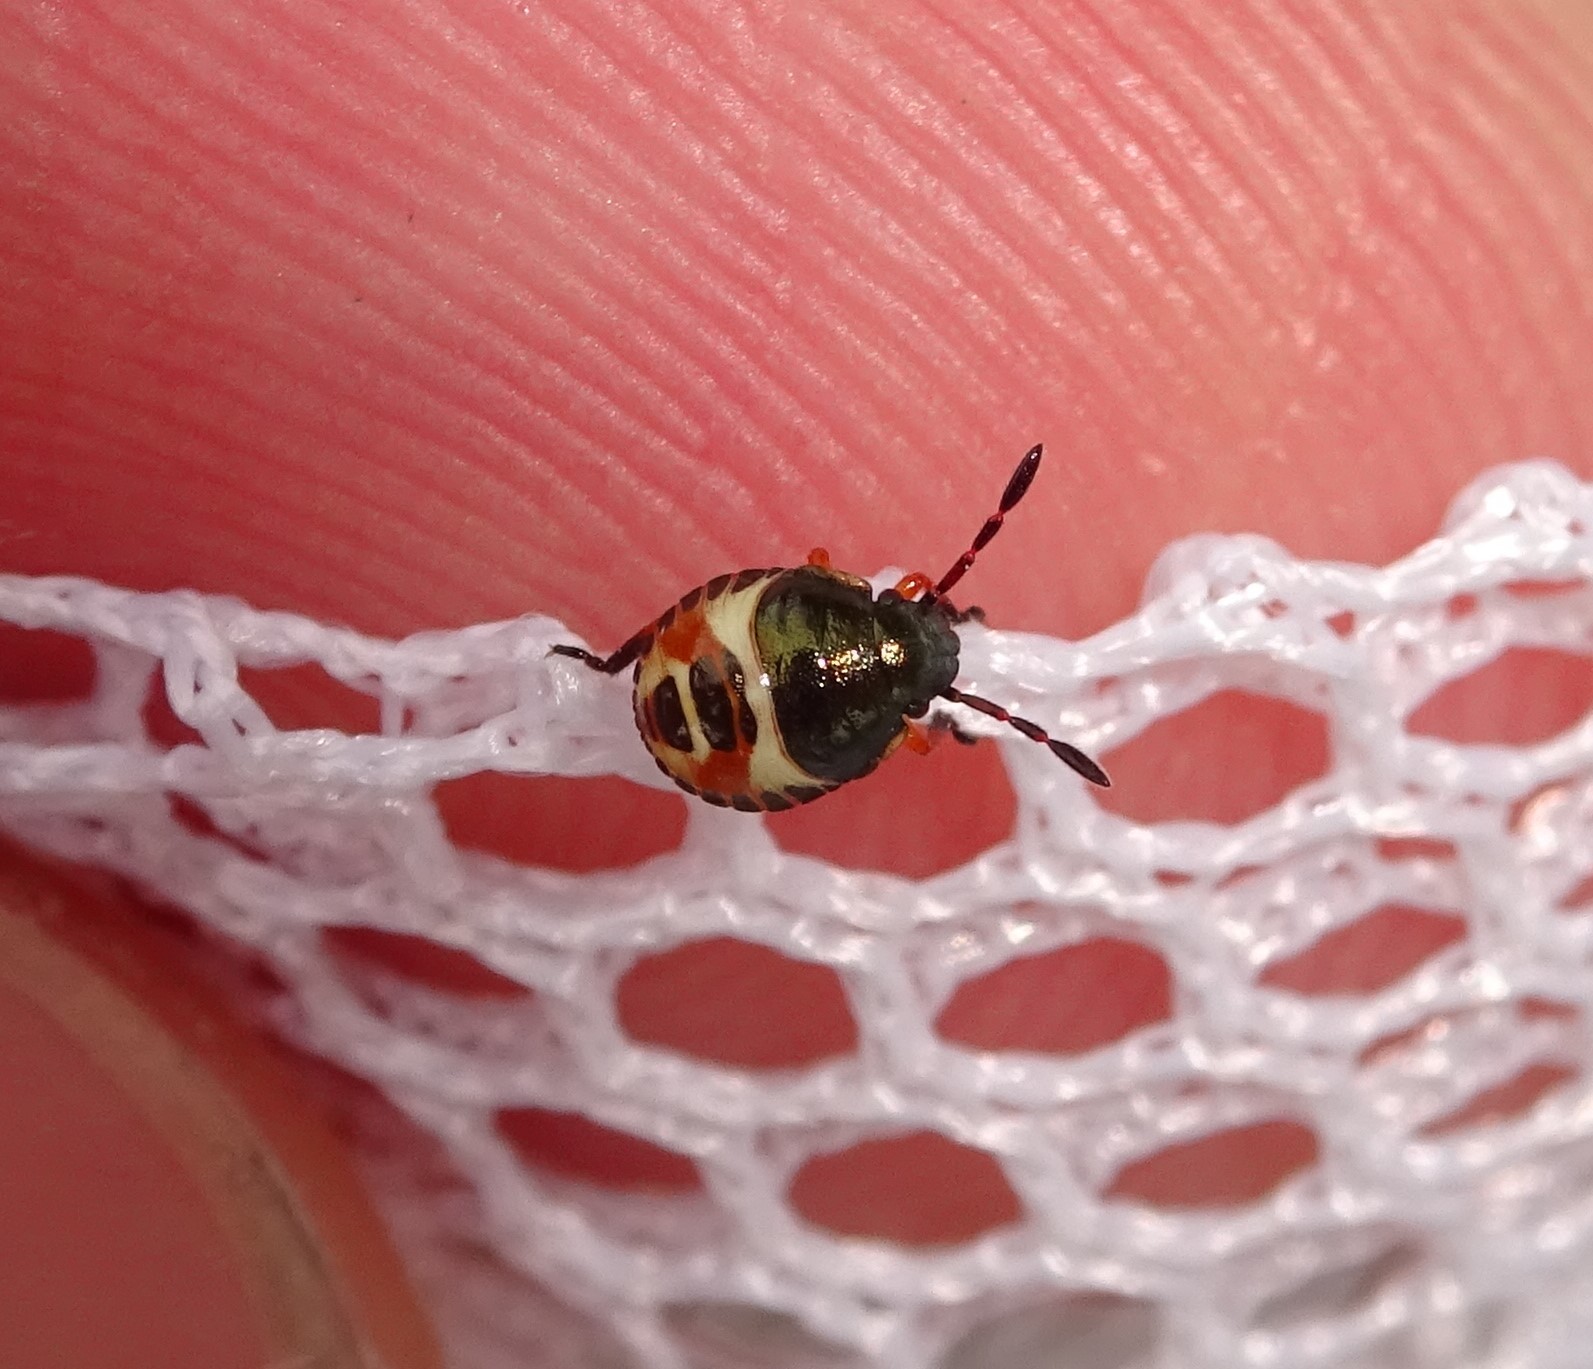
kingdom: Animalia
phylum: Arthropoda
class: Insecta
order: Hemiptera
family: Pentatomidae
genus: Carpocoris
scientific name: Carpocoris
